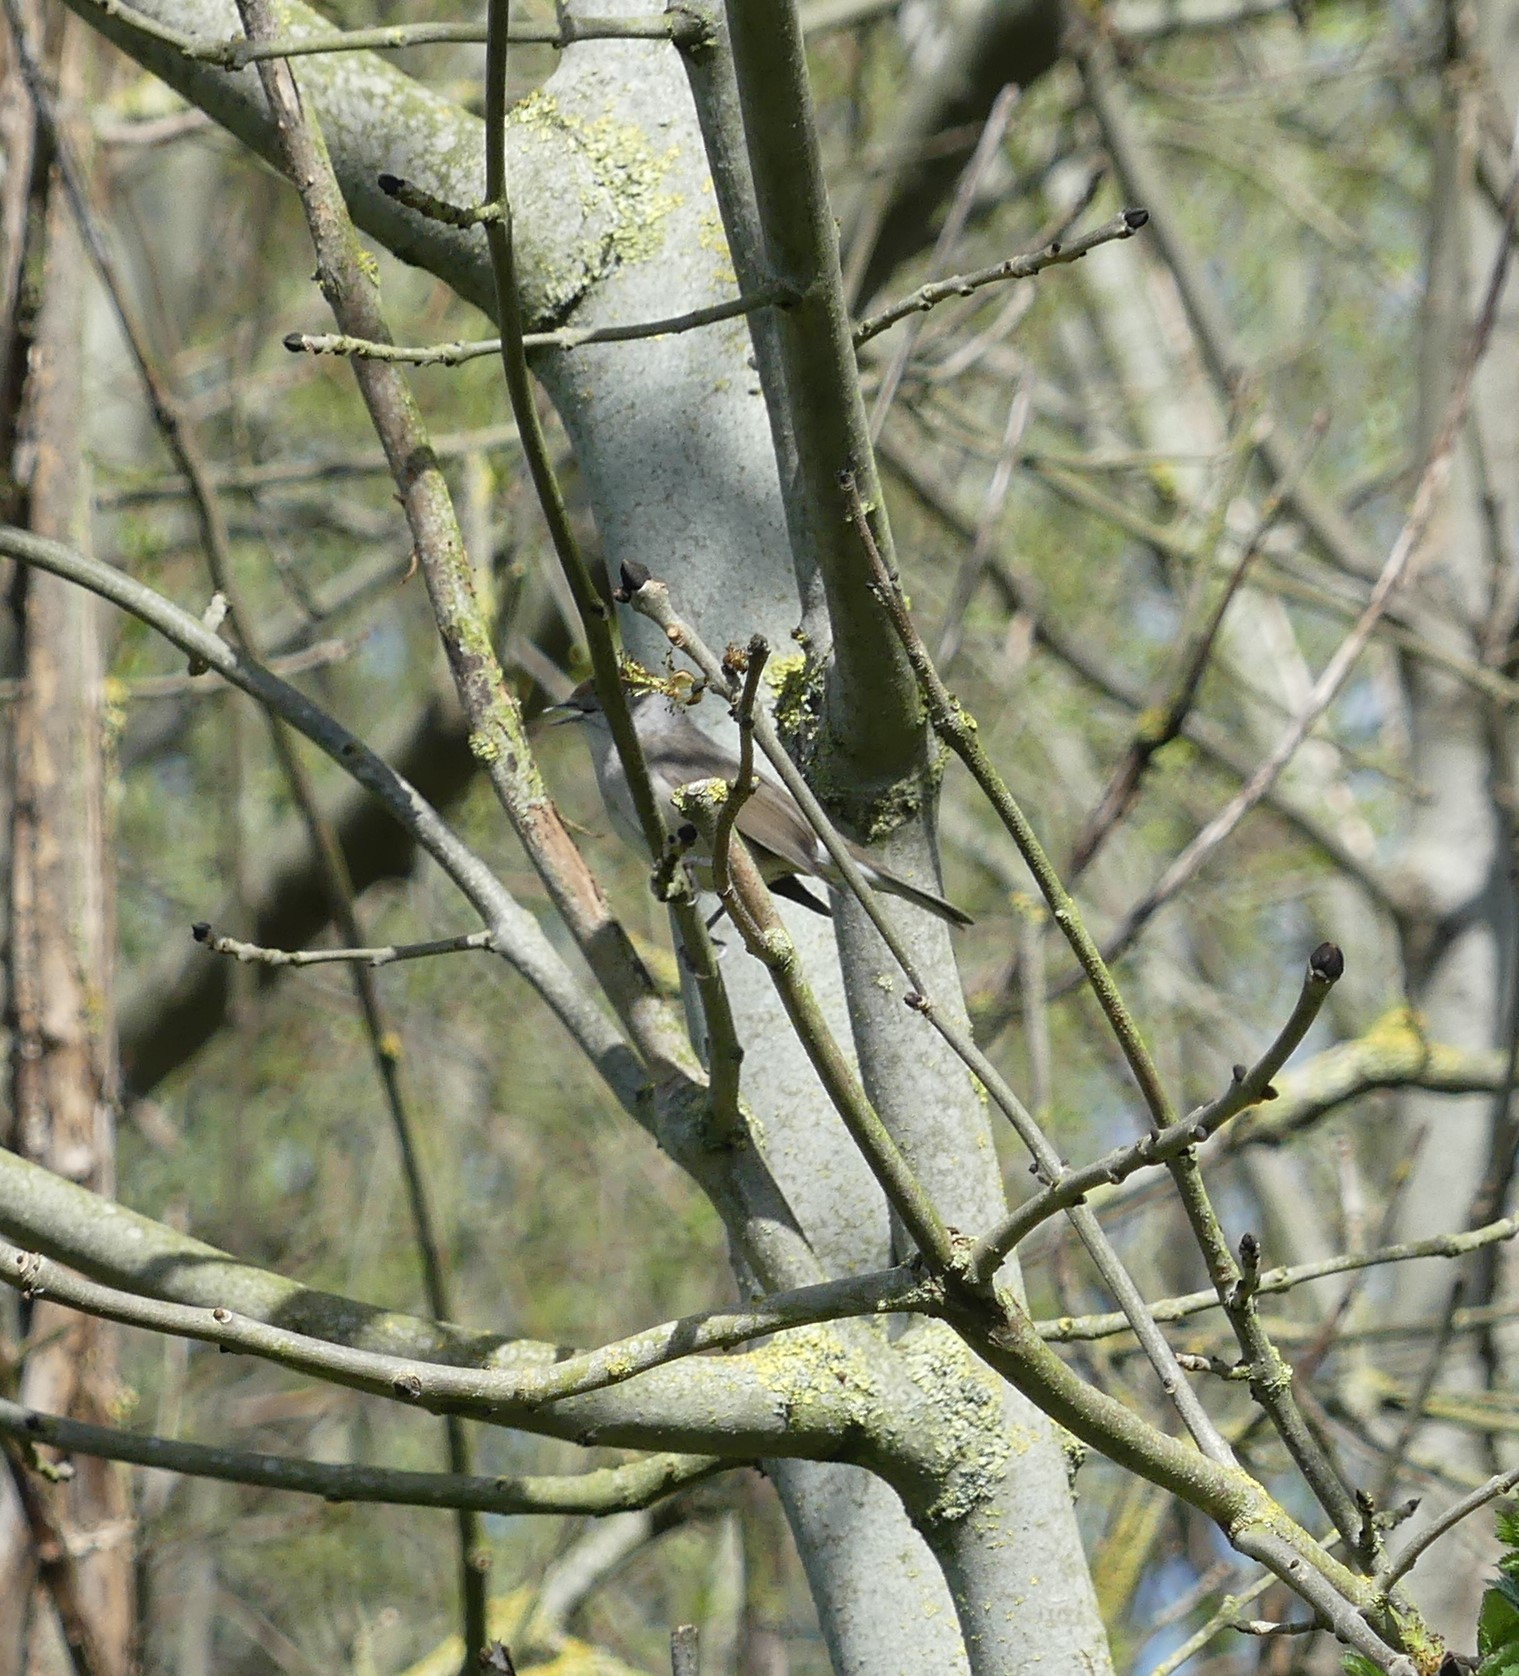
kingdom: Animalia
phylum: Chordata
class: Aves
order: Passeriformes
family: Sylviidae
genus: Sylvia
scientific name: Sylvia atricapilla
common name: Eurasian blackcap
